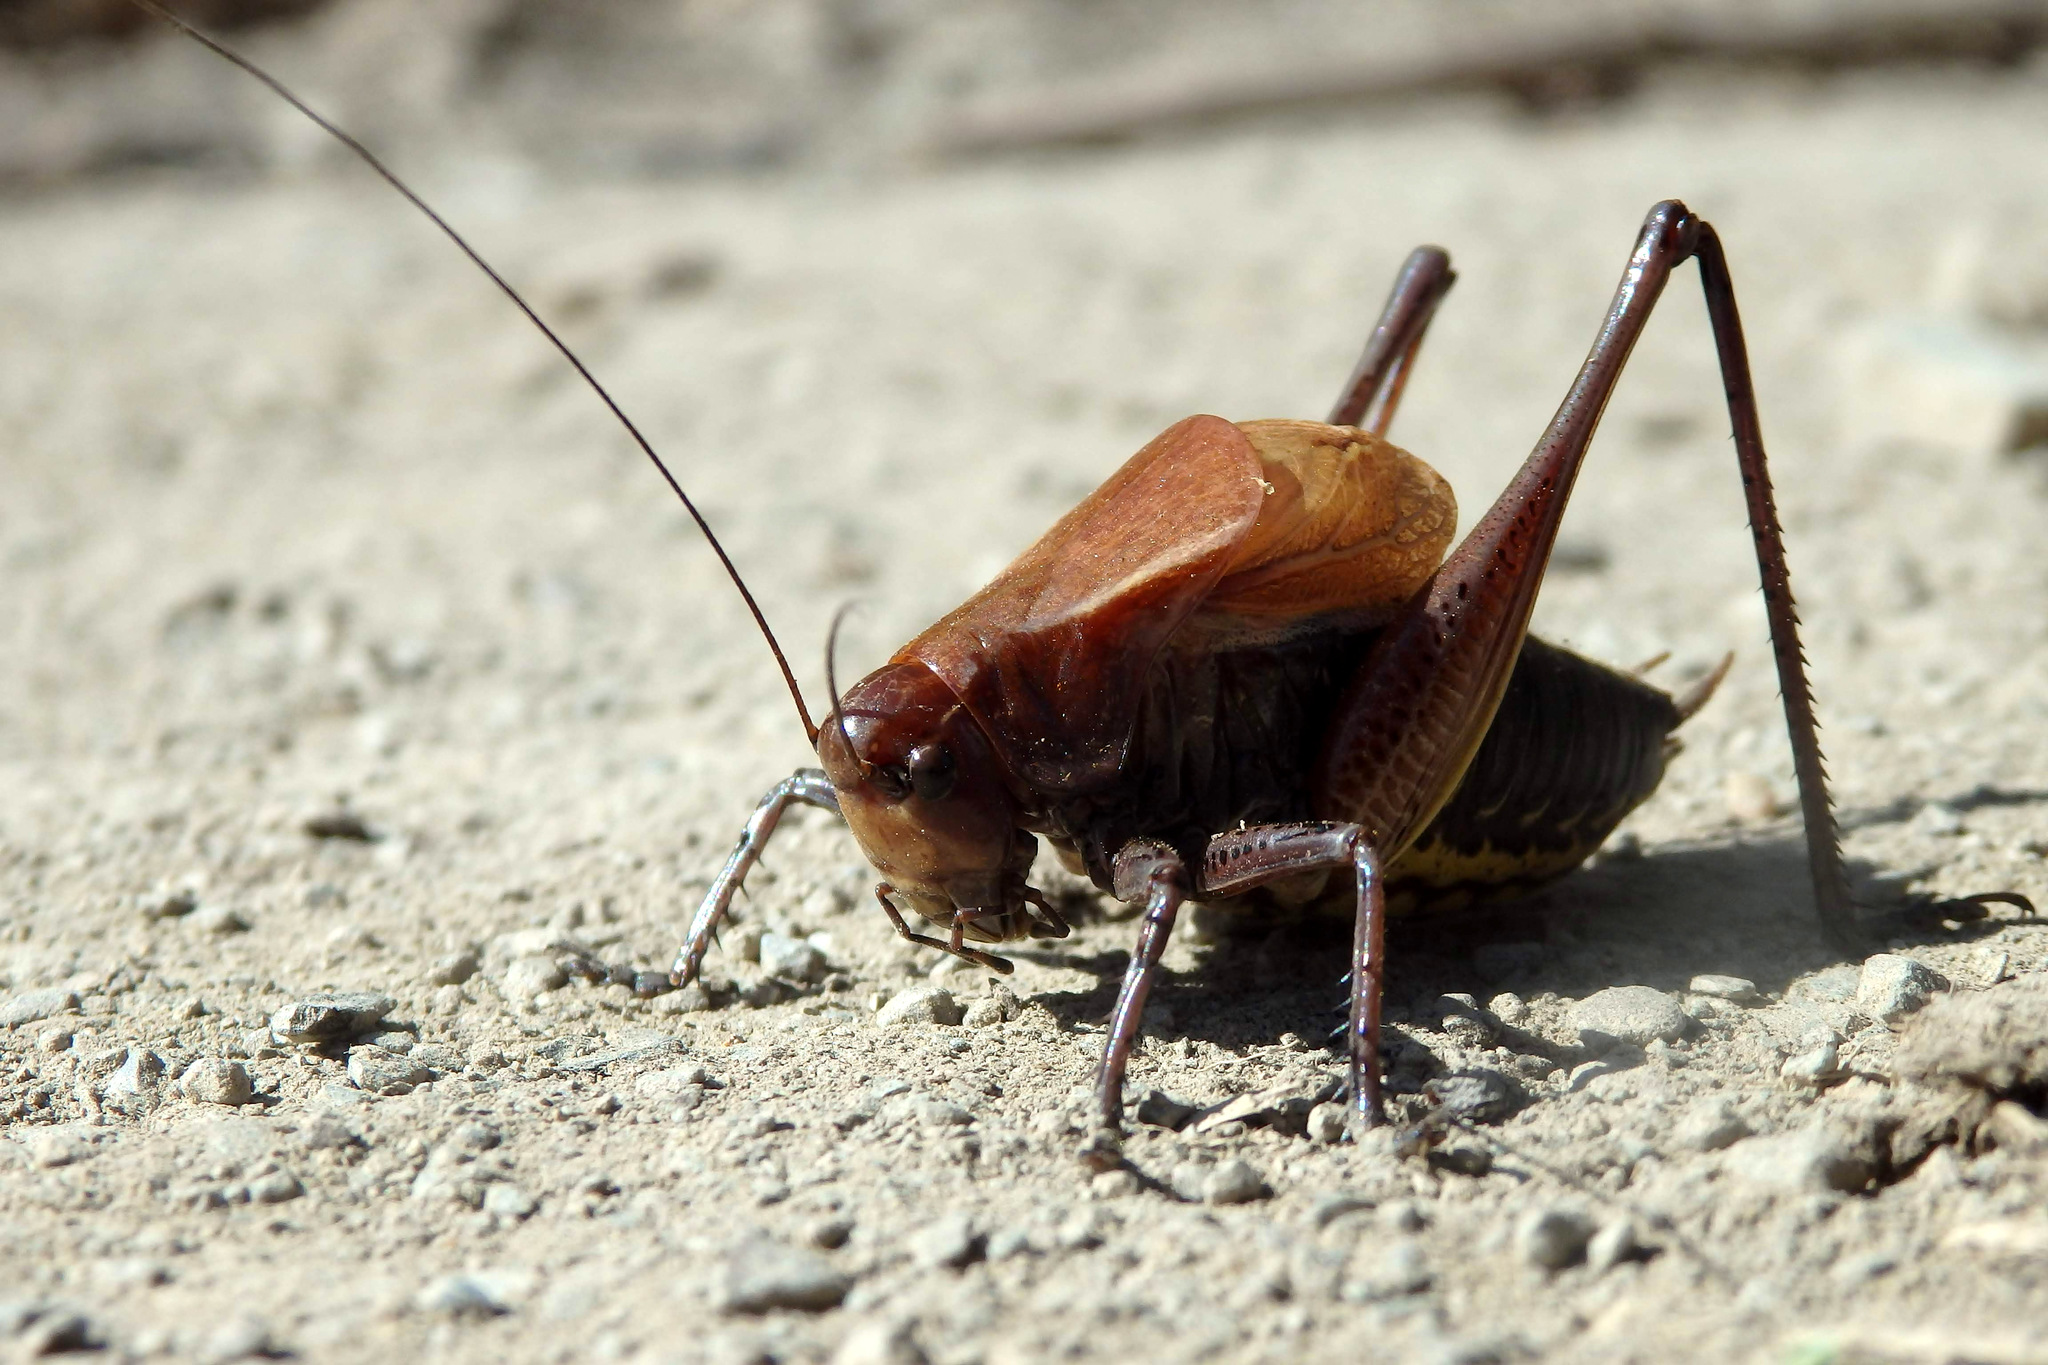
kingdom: Animalia
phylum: Arthropoda
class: Insecta
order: Orthoptera
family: Tettigoniidae
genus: Psorodonotus
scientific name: Psorodonotus caucasicus
